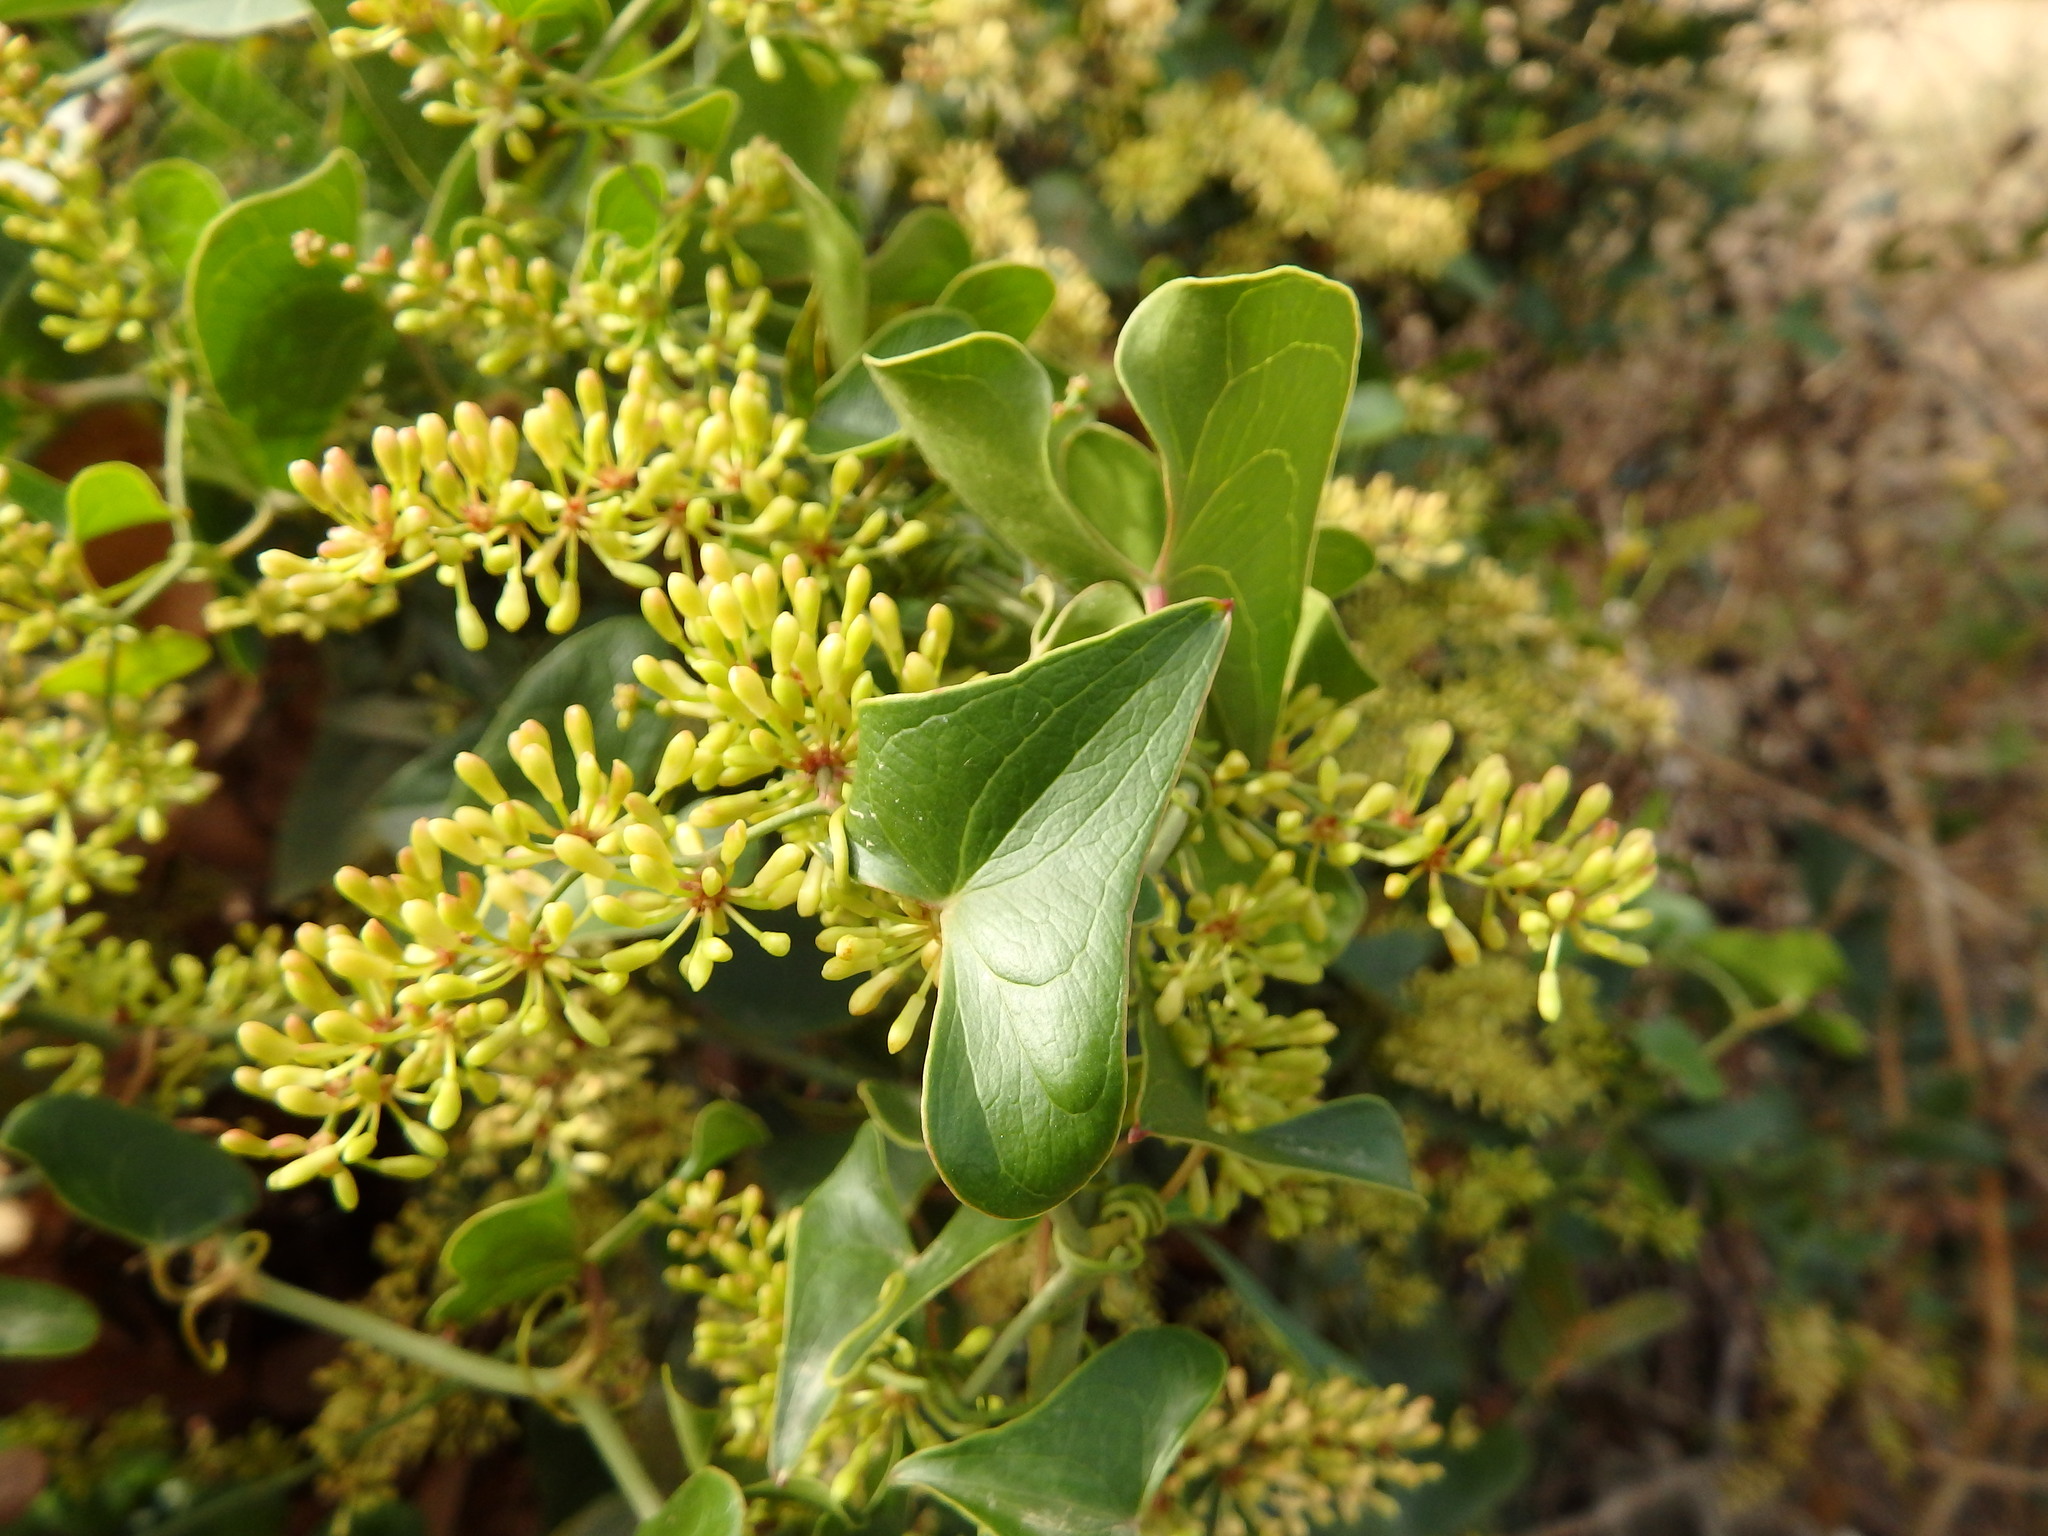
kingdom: Plantae
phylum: Tracheophyta
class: Liliopsida
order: Liliales
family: Smilacaceae
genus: Smilax
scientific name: Smilax aspera
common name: Common smilax
